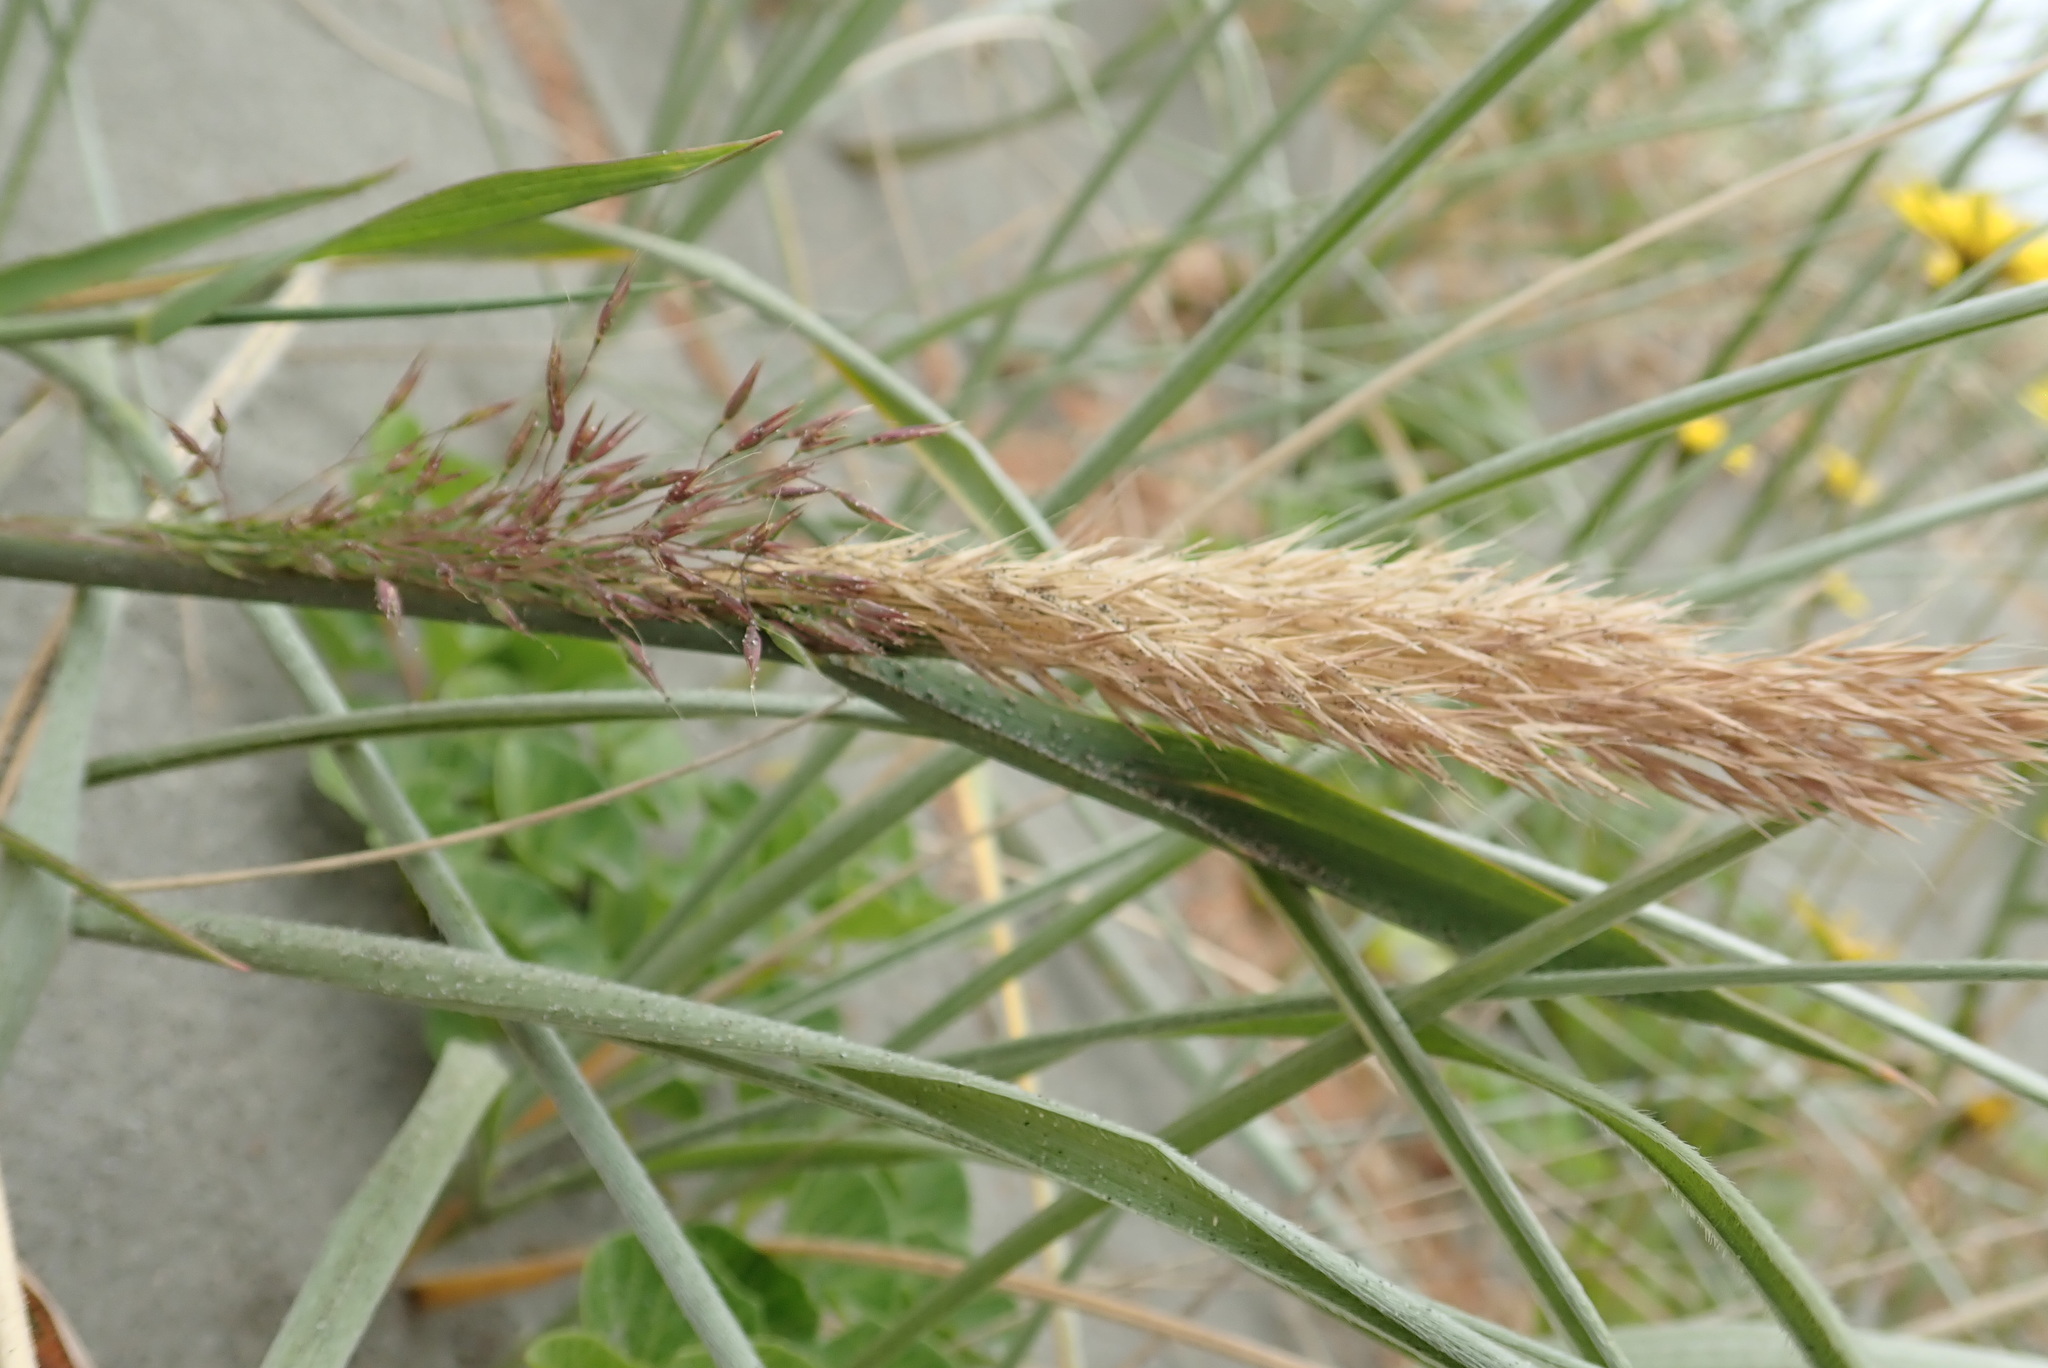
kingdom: Plantae
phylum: Tracheophyta
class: Liliopsida
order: Poales
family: Poaceae
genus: Lachnagrostis
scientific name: Lachnagrostis billardierei
